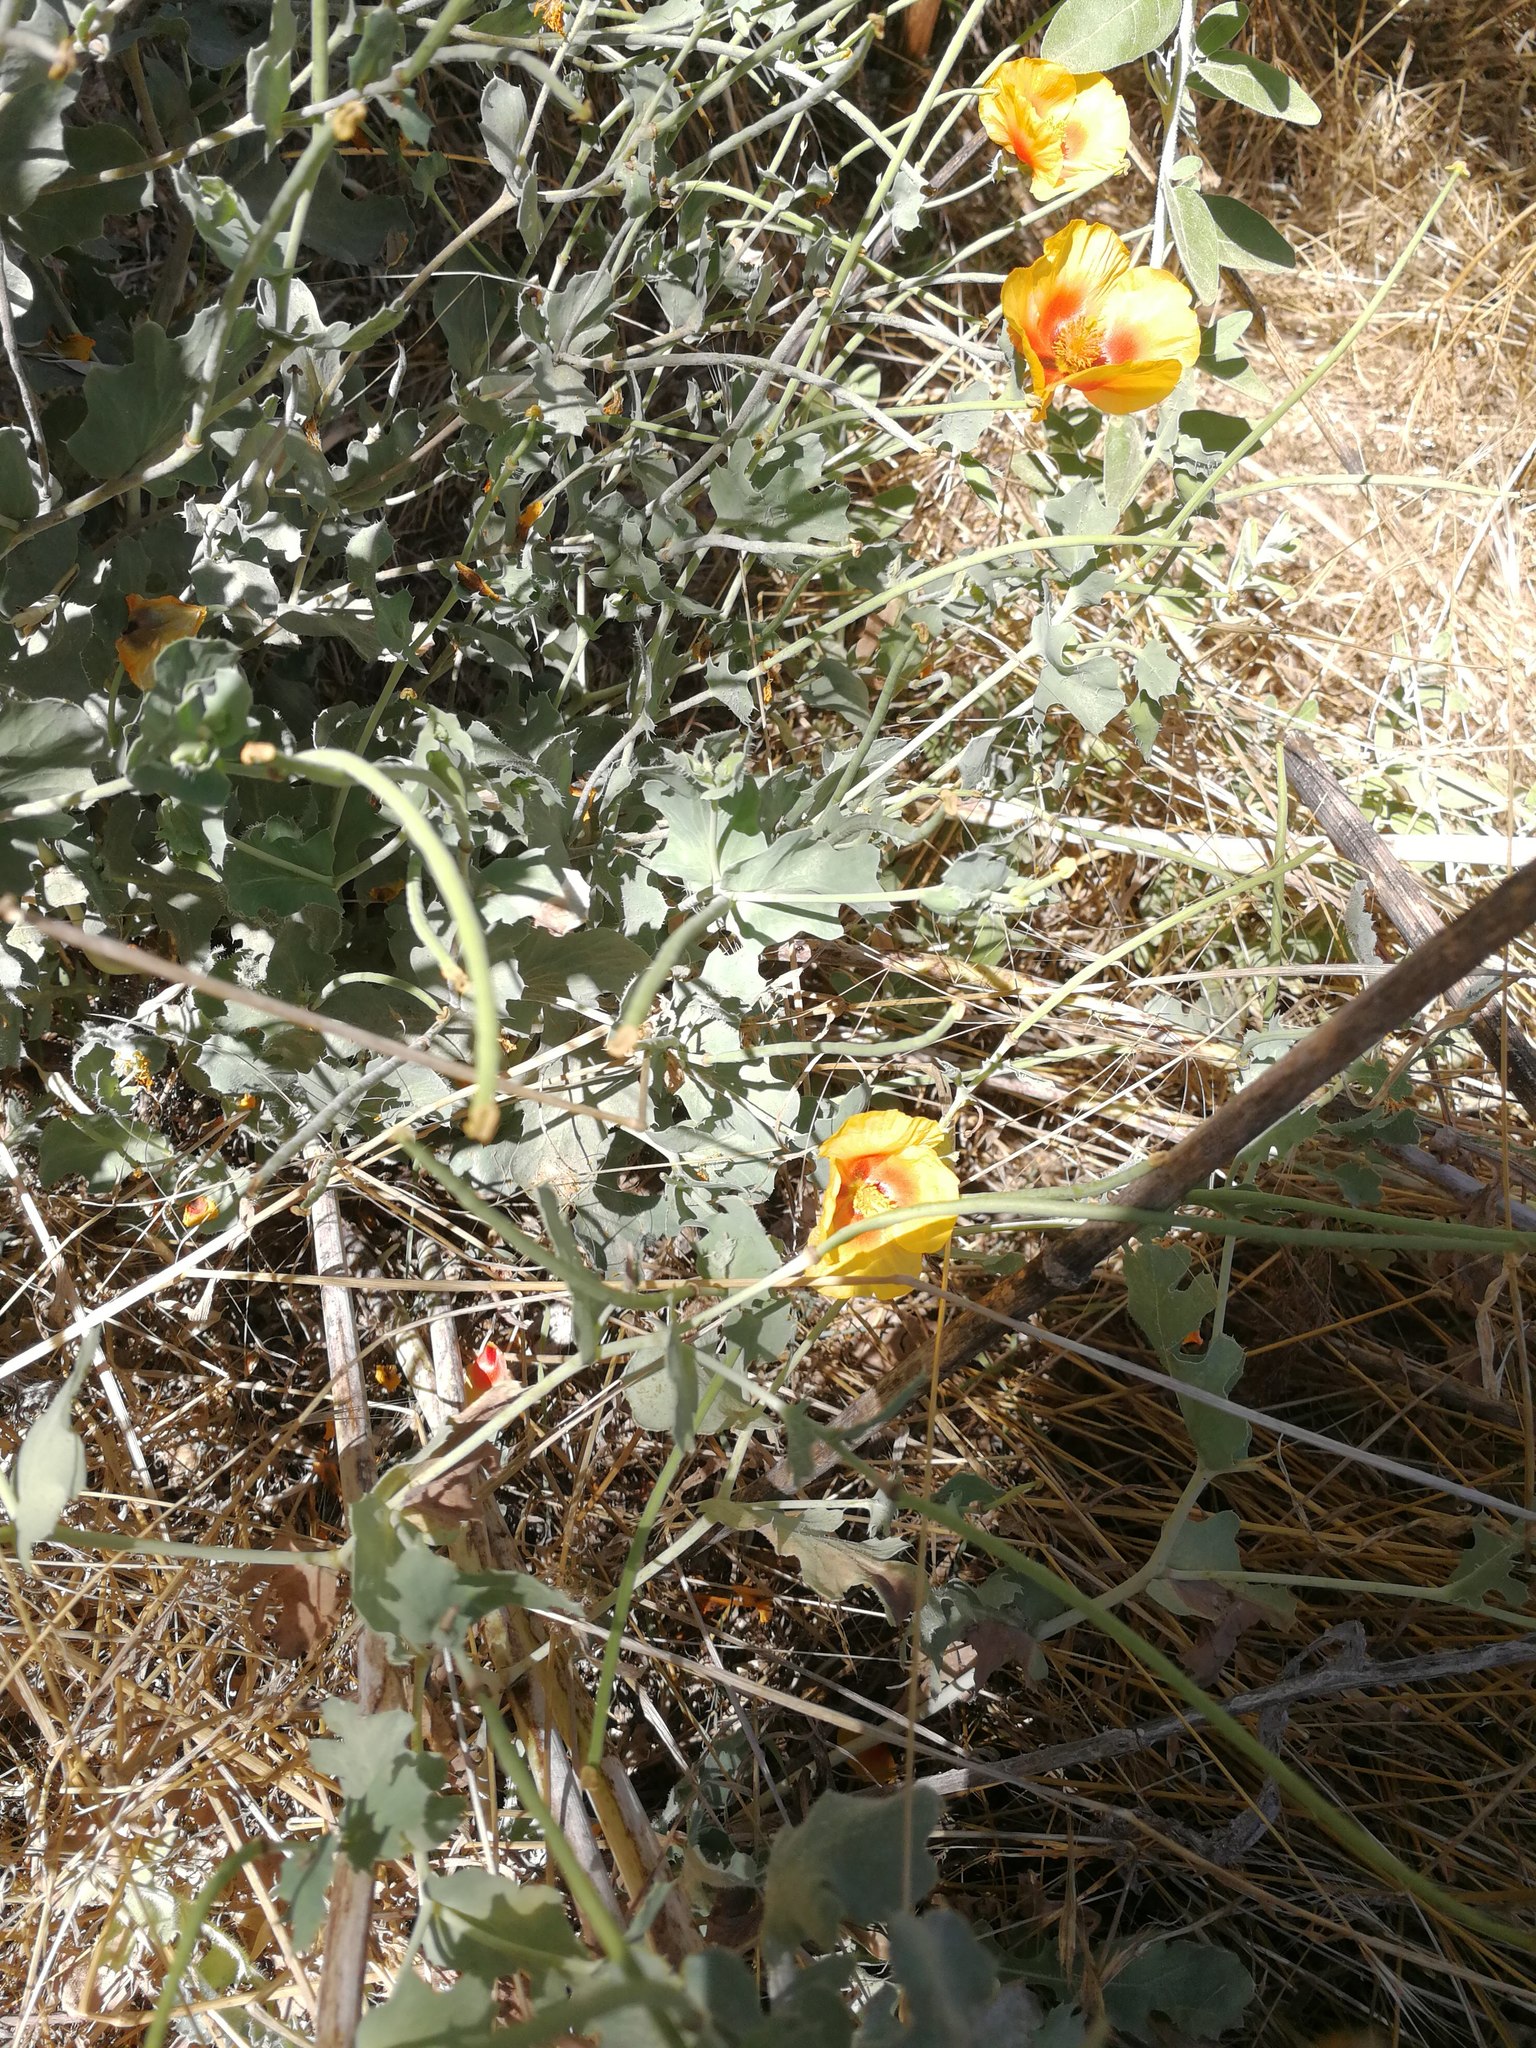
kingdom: Plantae
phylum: Tracheophyta
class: Magnoliopsida
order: Ranunculales
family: Papaveraceae
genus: Glaucium
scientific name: Glaucium
